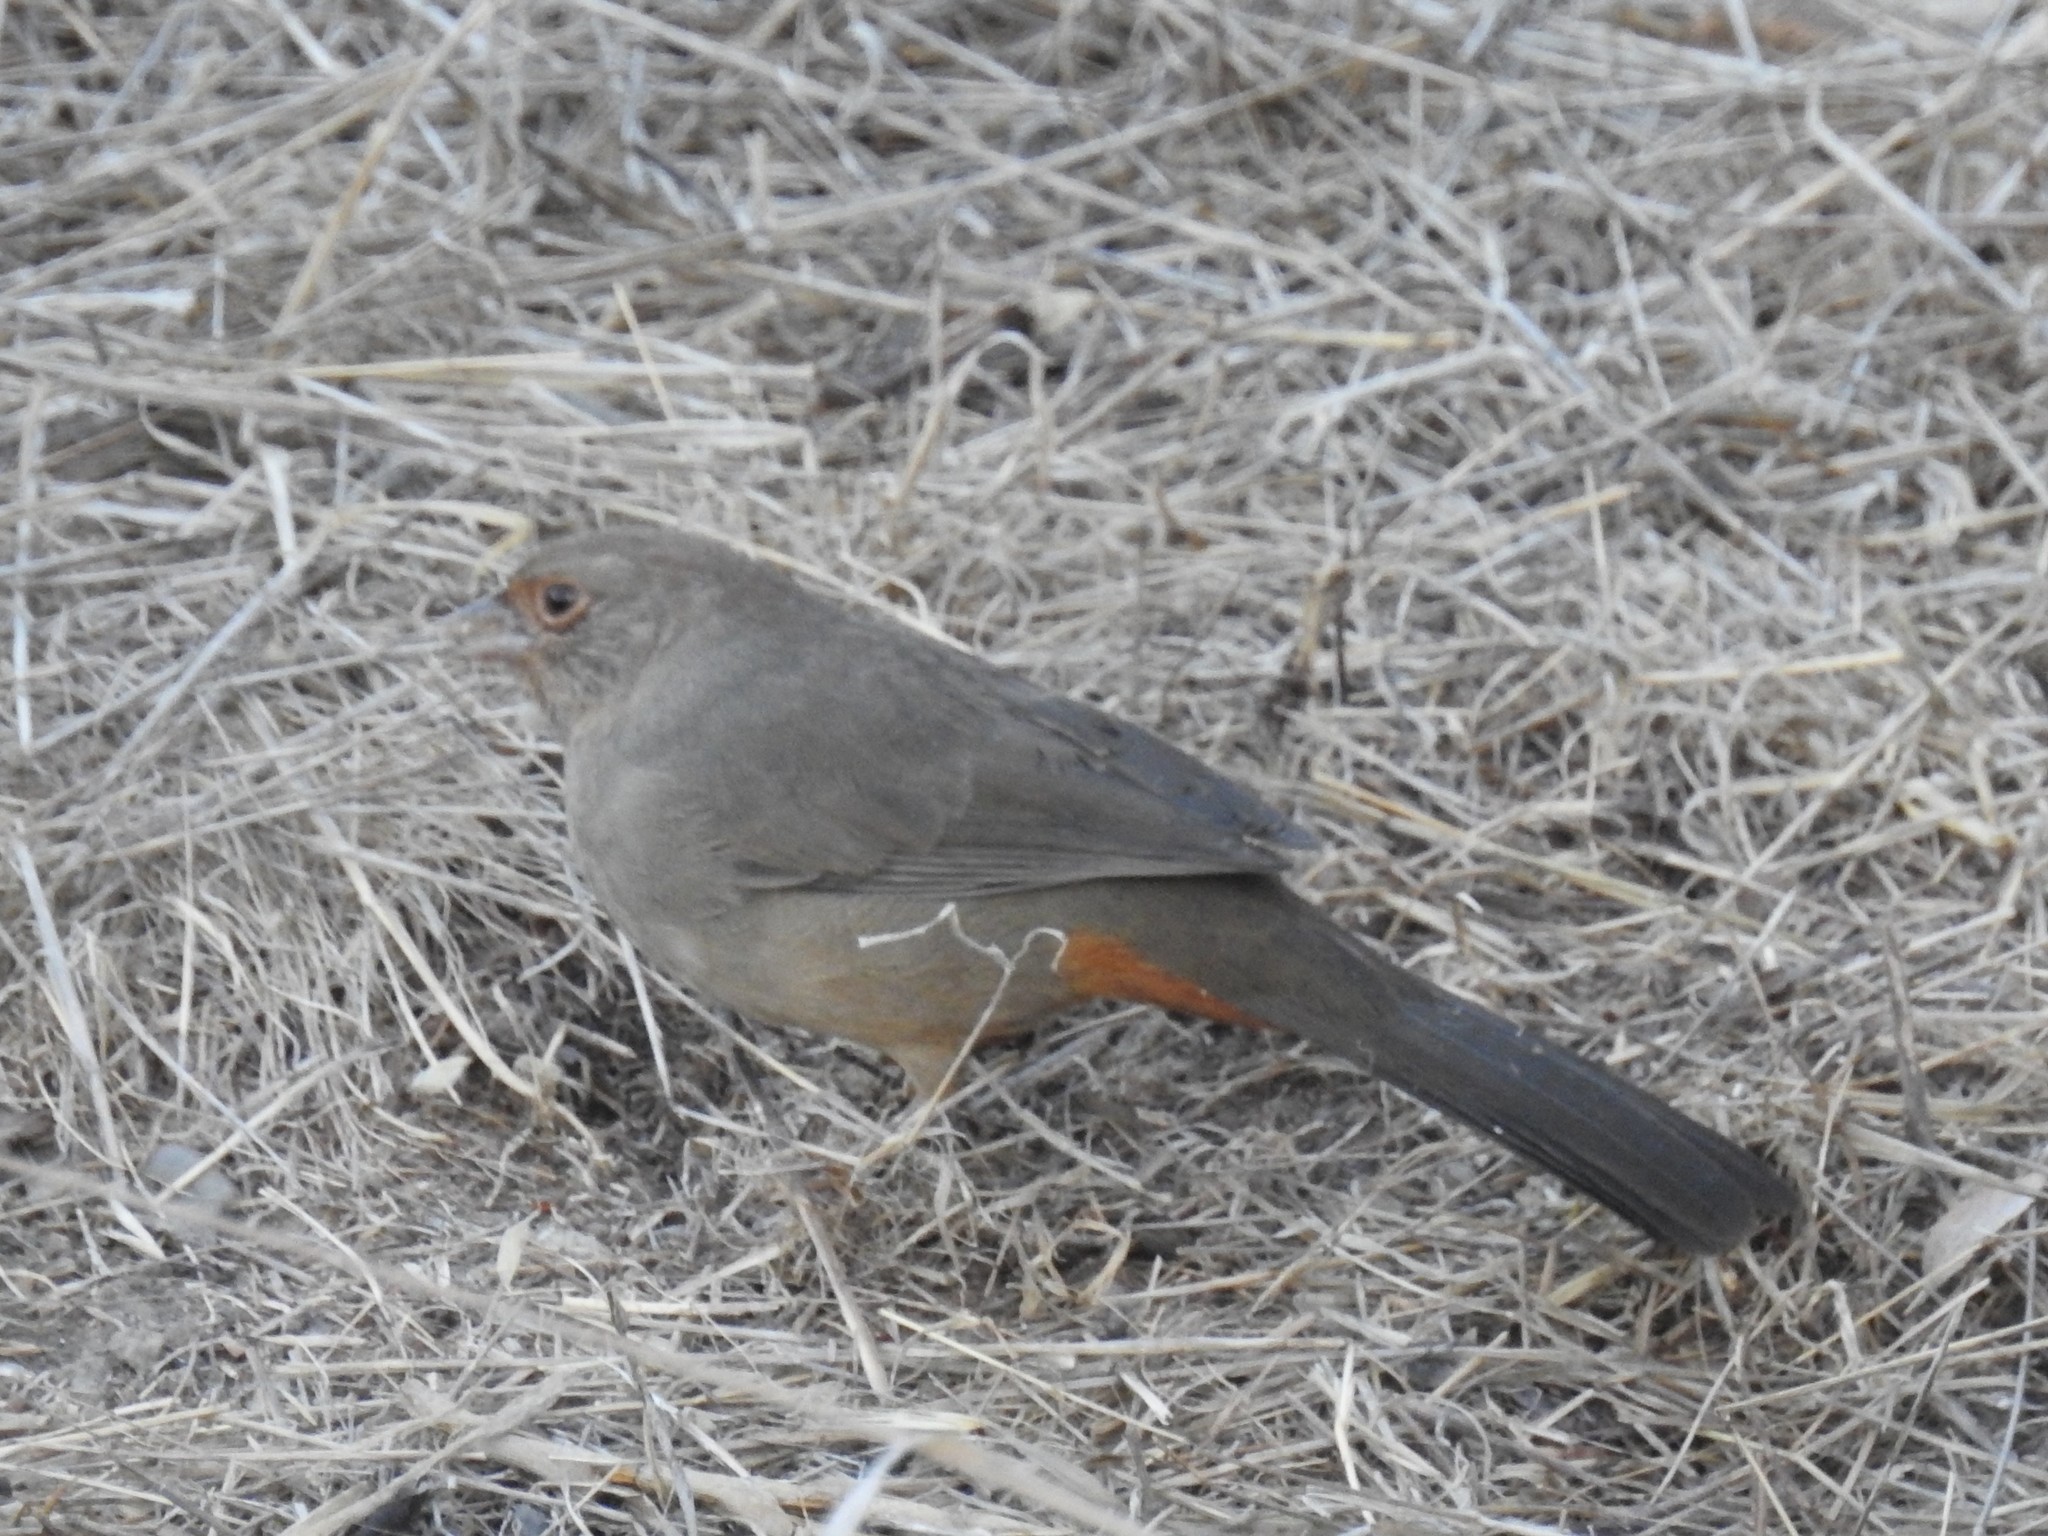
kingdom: Animalia
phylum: Chordata
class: Aves
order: Passeriformes
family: Passerellidae
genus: Melozone
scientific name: Melozone crissalis
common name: California towhee
